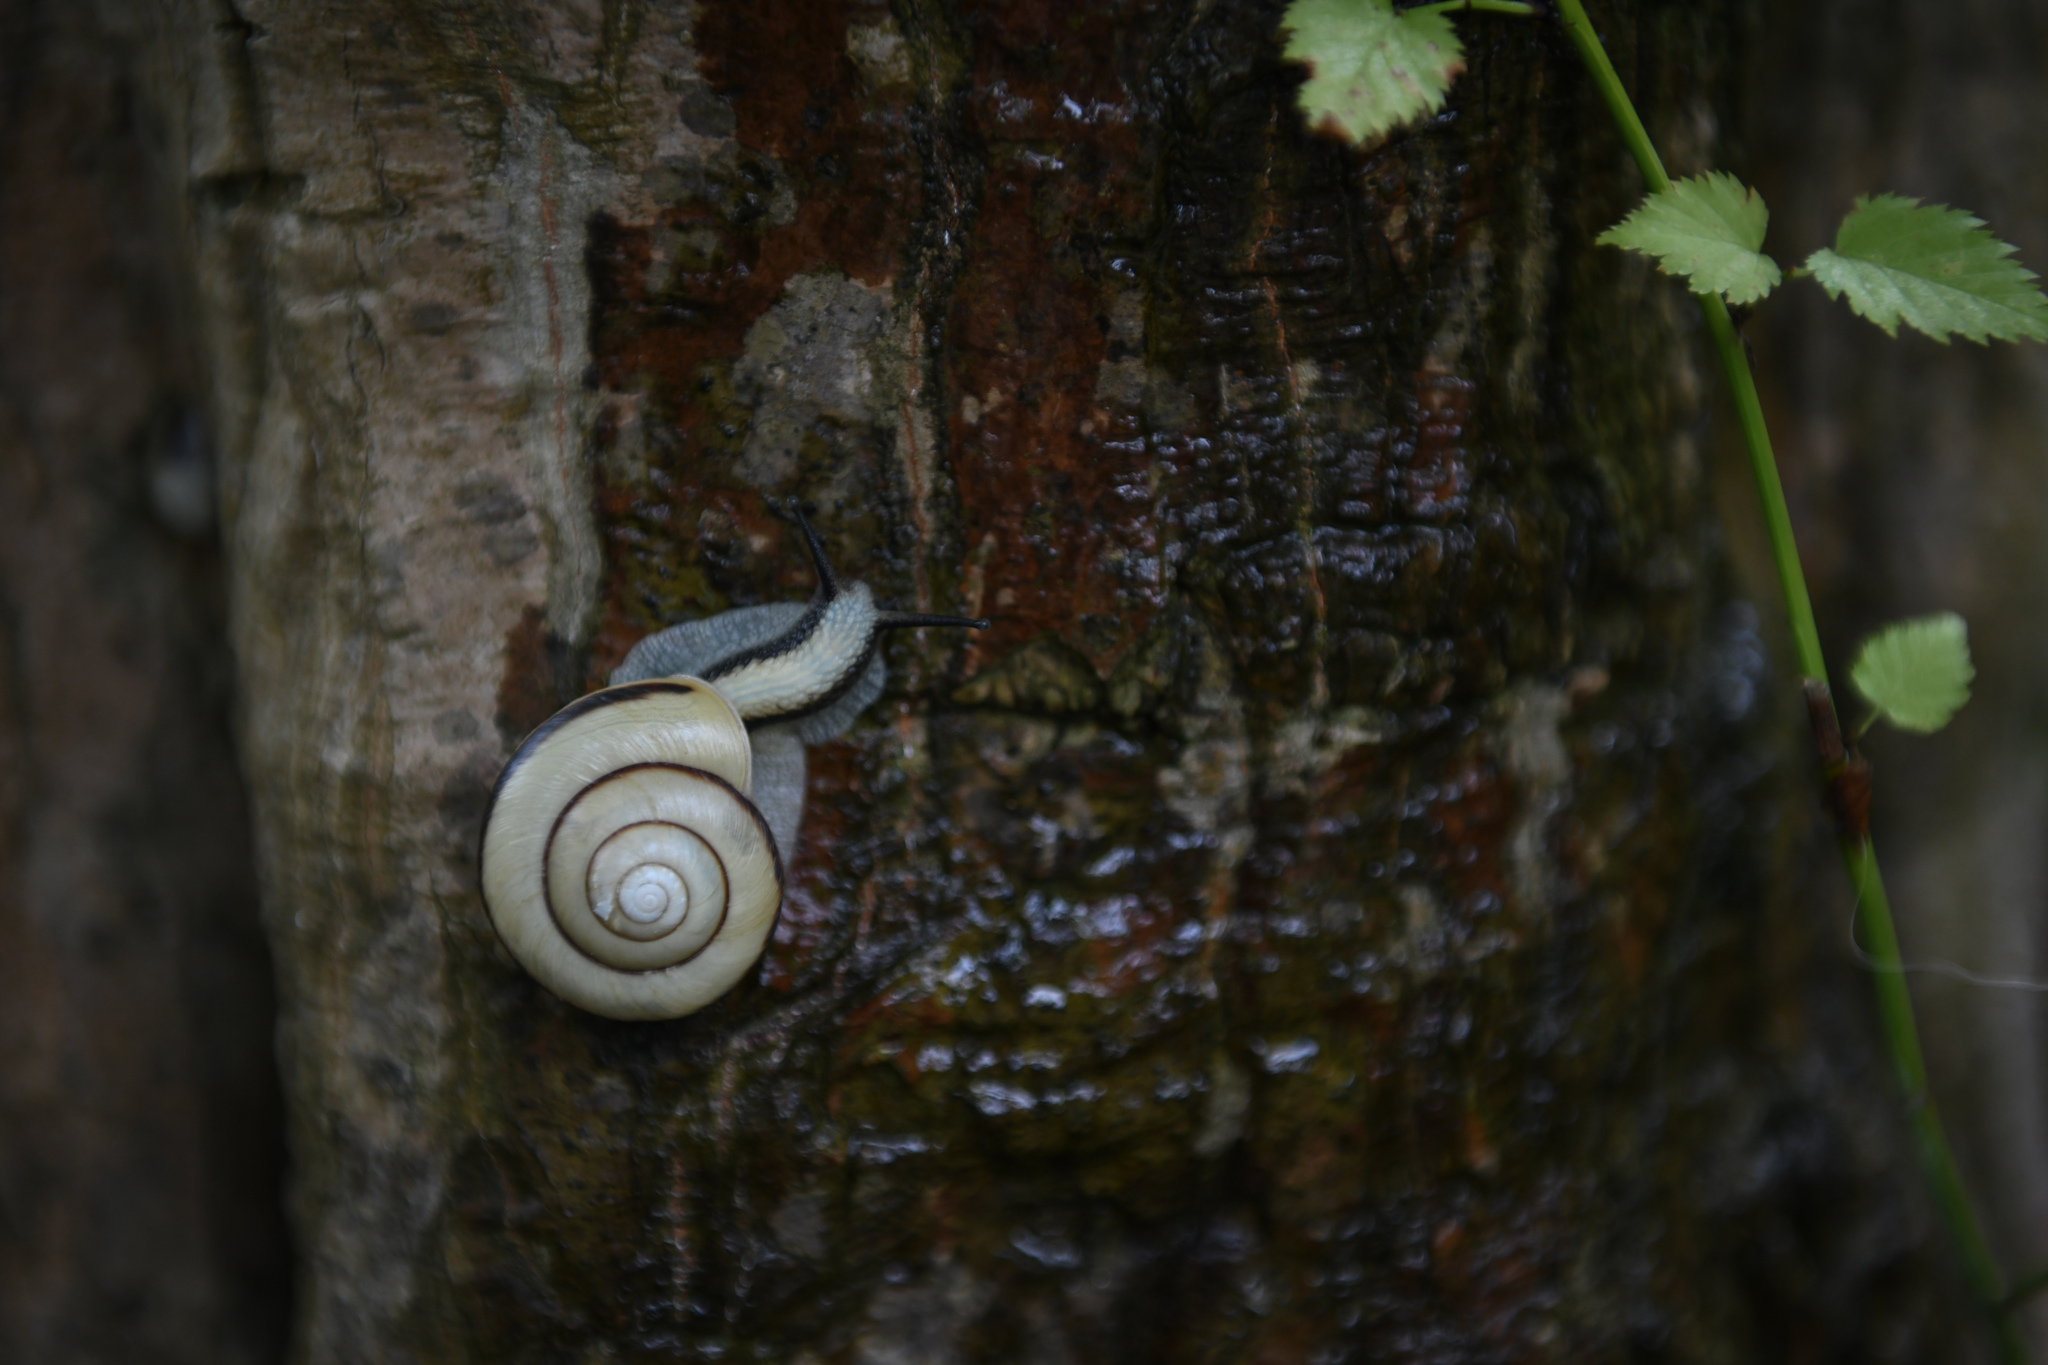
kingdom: Animalia
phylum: Mollusca
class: Gastropoda
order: Stylommatophora
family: Camaenidae
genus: Euhadra
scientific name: Euhadra amaliae
